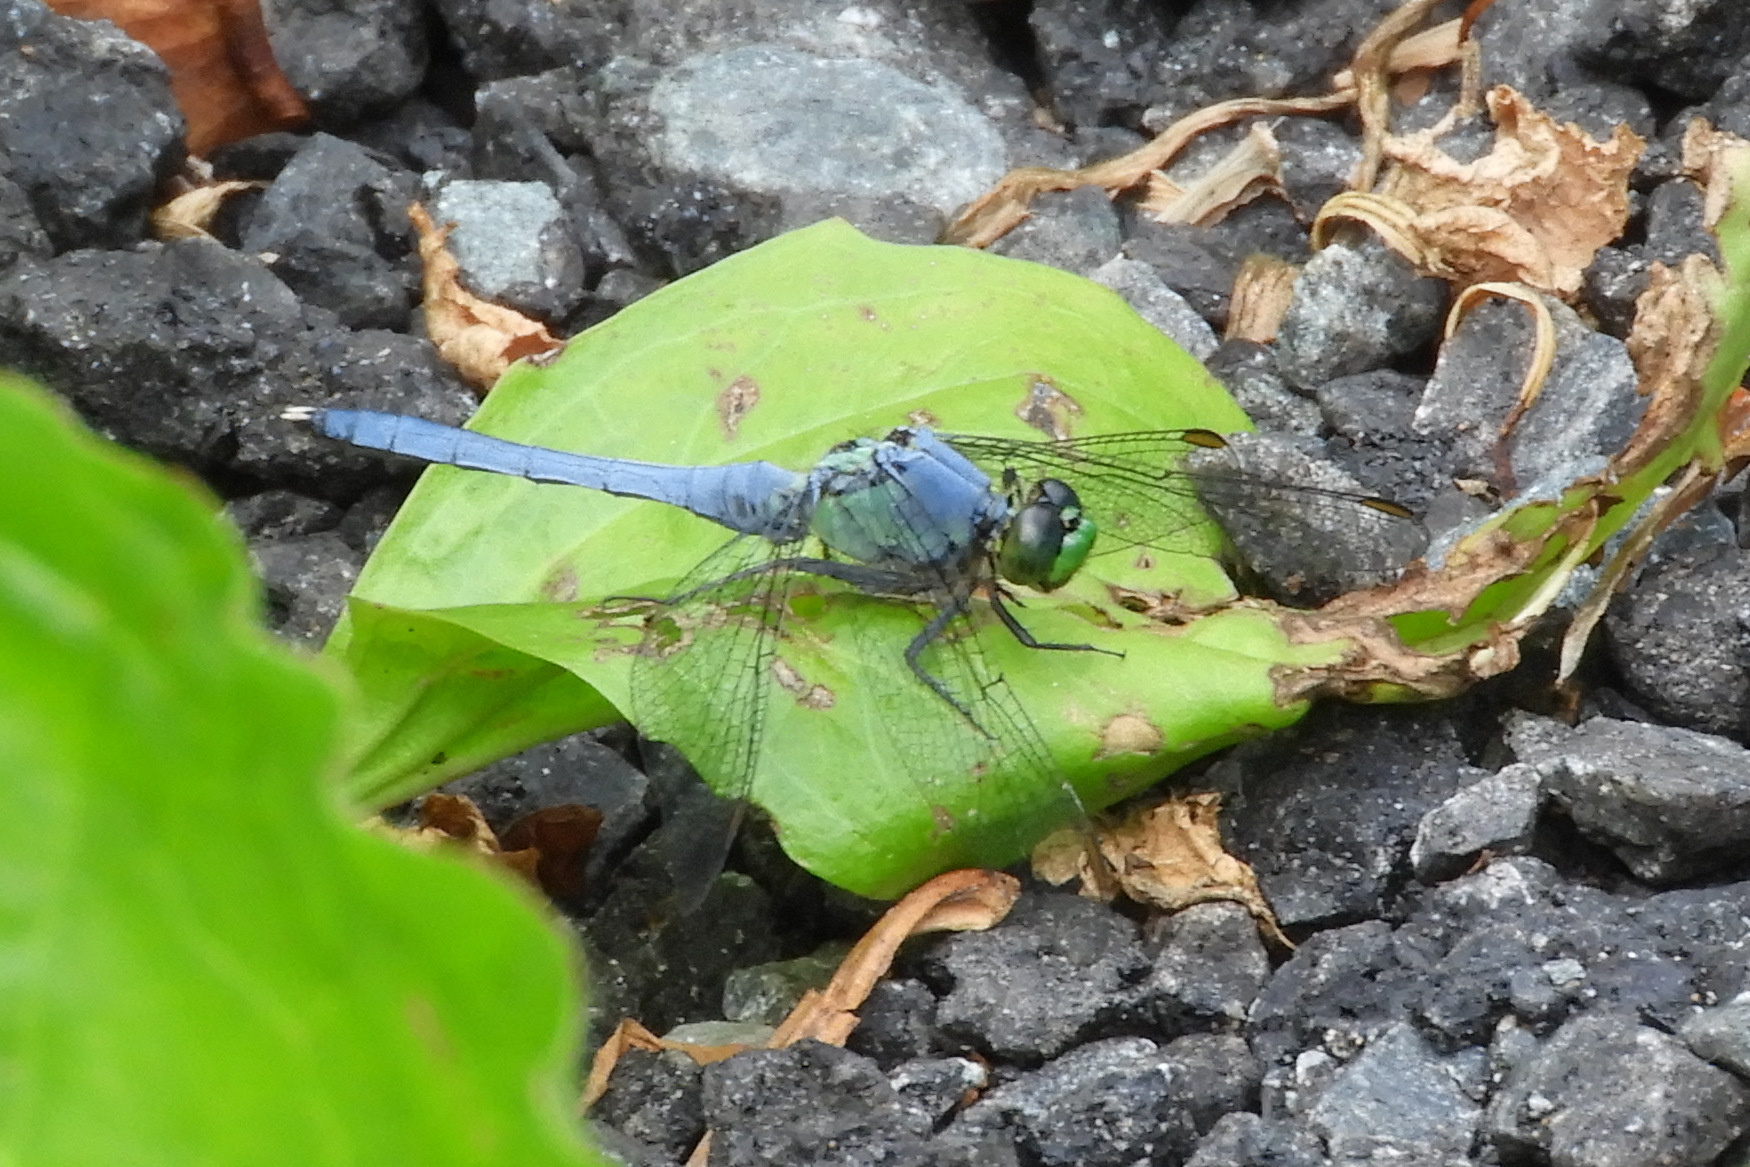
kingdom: Animalia
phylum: Arthropoda
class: Insecta
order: Odonata
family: Libellulidae
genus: Erythemis
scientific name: Erythemis simplicicollis
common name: Eastern pondhawk
